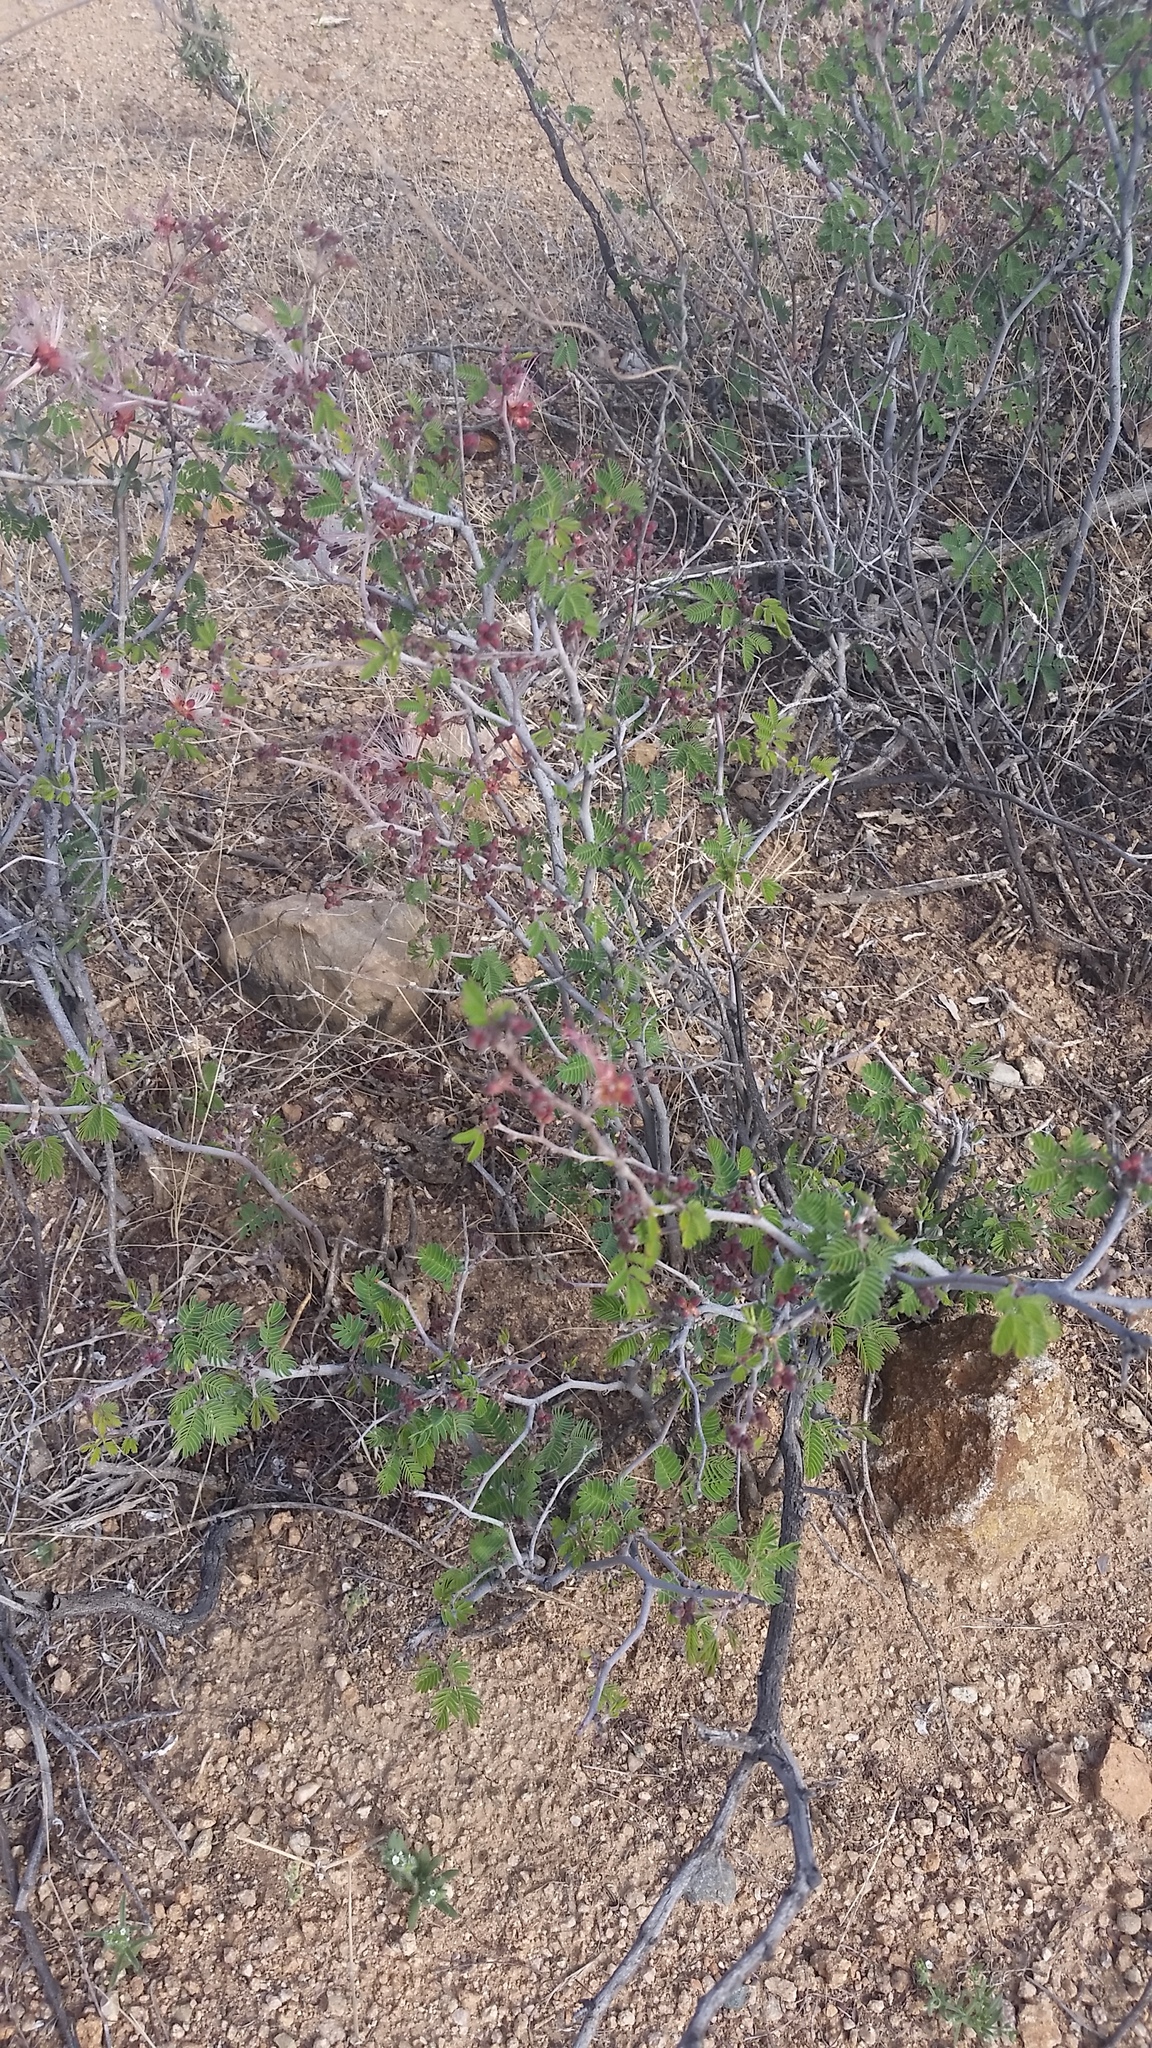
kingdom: Plantae
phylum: Tracheophyta
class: Magnoliopsida
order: Fabales
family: Fabaceae
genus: Calliandra
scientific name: Calliandra eriophylla
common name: Fairy-duster
